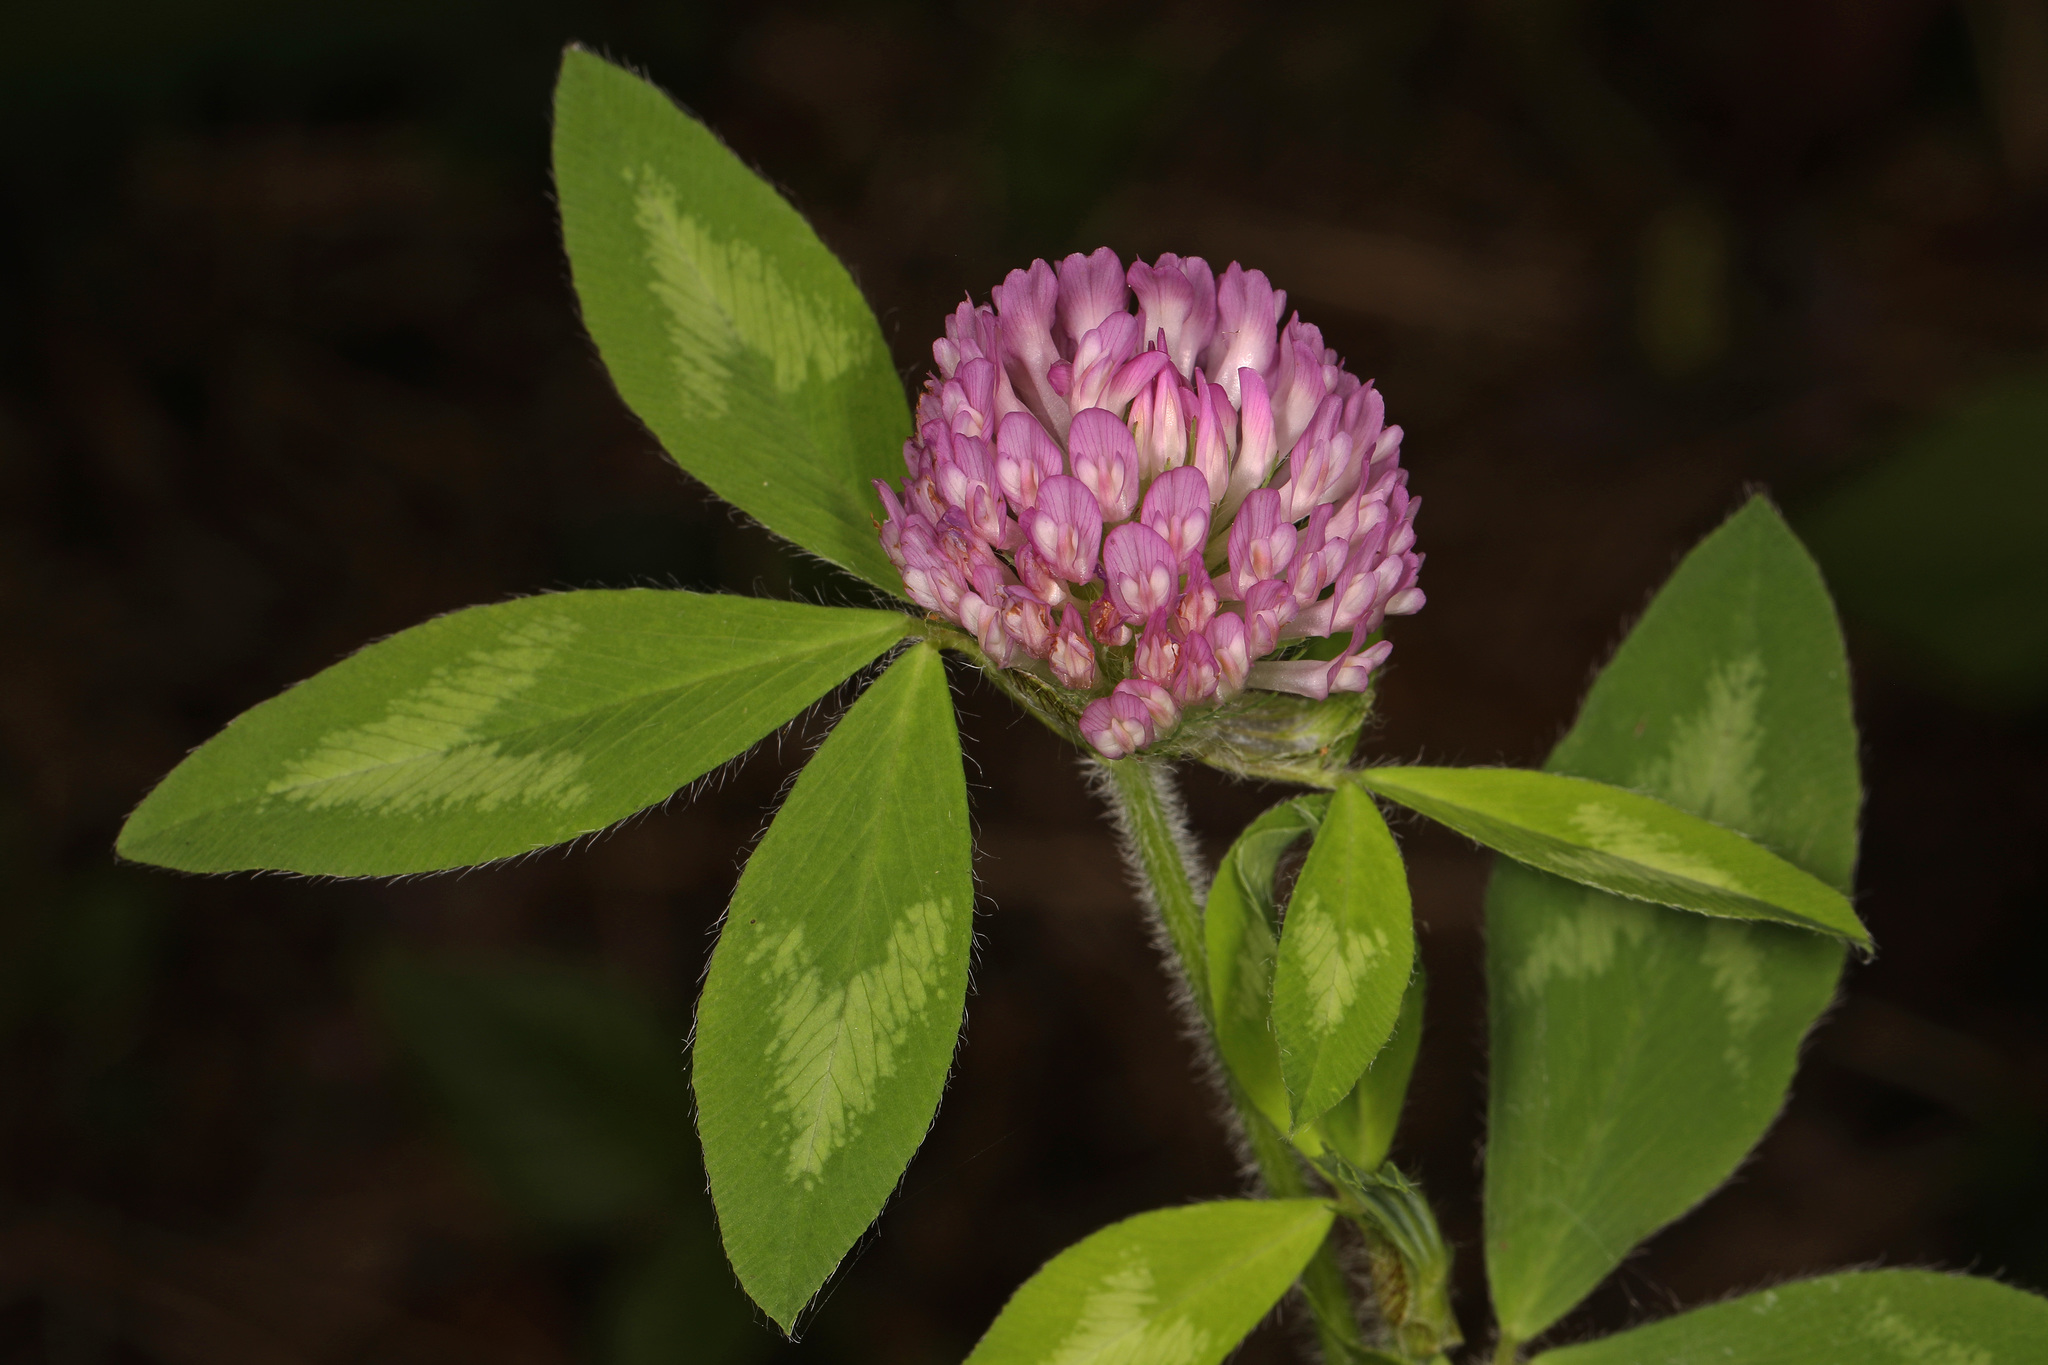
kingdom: Plantae
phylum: Tracheophyta
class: Magnoliopsida
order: Fabales
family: Fabaceae
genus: Trifolium
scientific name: Trifolium pratense
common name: Red clover
